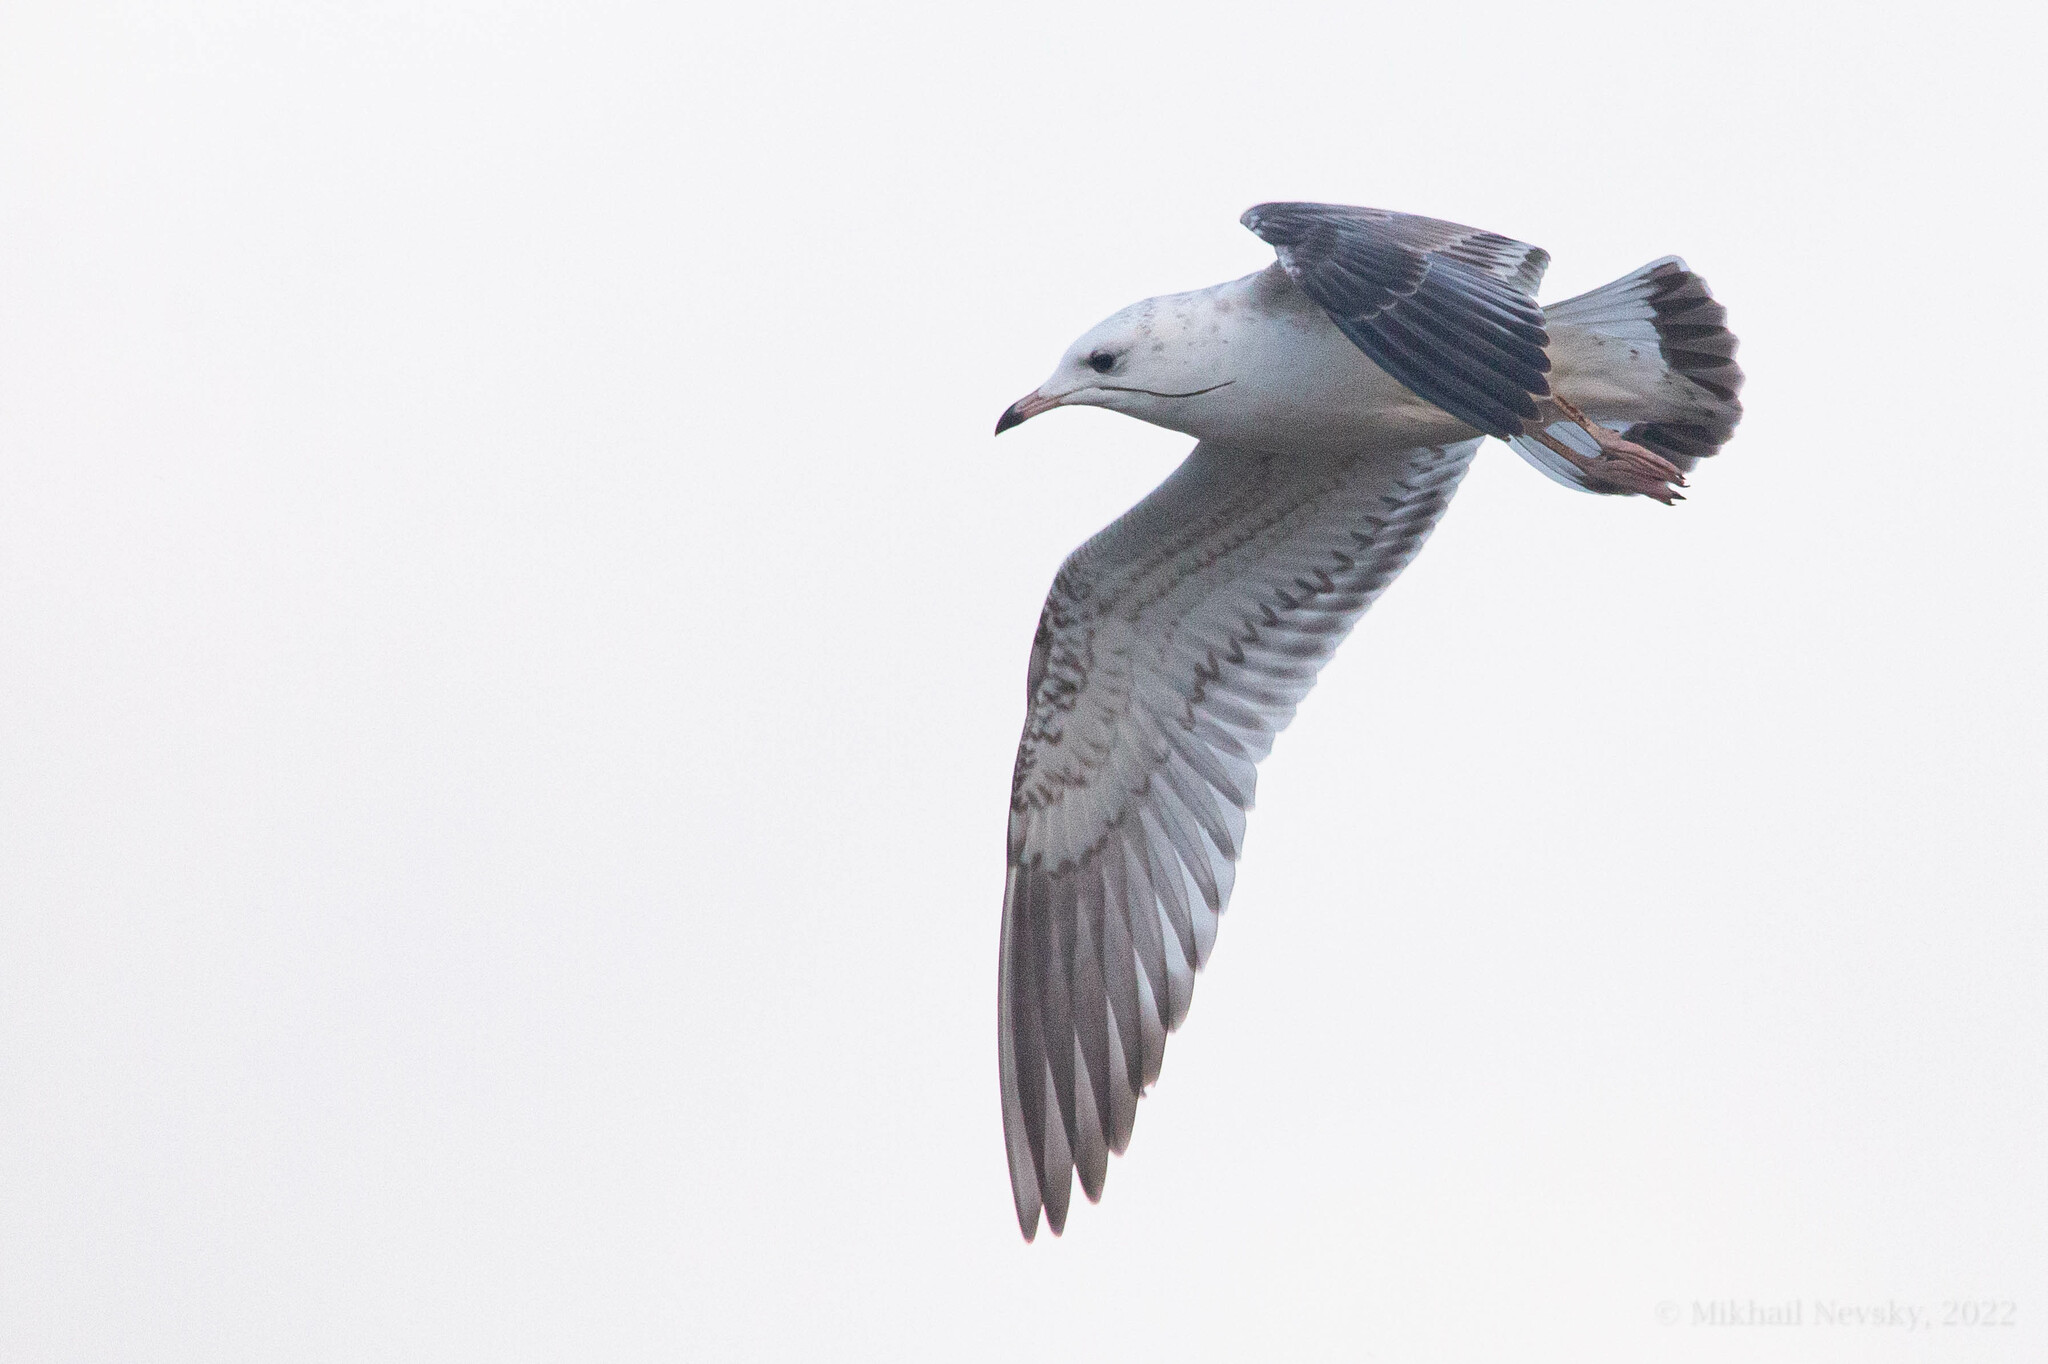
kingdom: Animalia
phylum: Chordata
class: Aves
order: Charadriiformes
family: Laridae
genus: Larus
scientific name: Larus canus
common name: Mew gull
